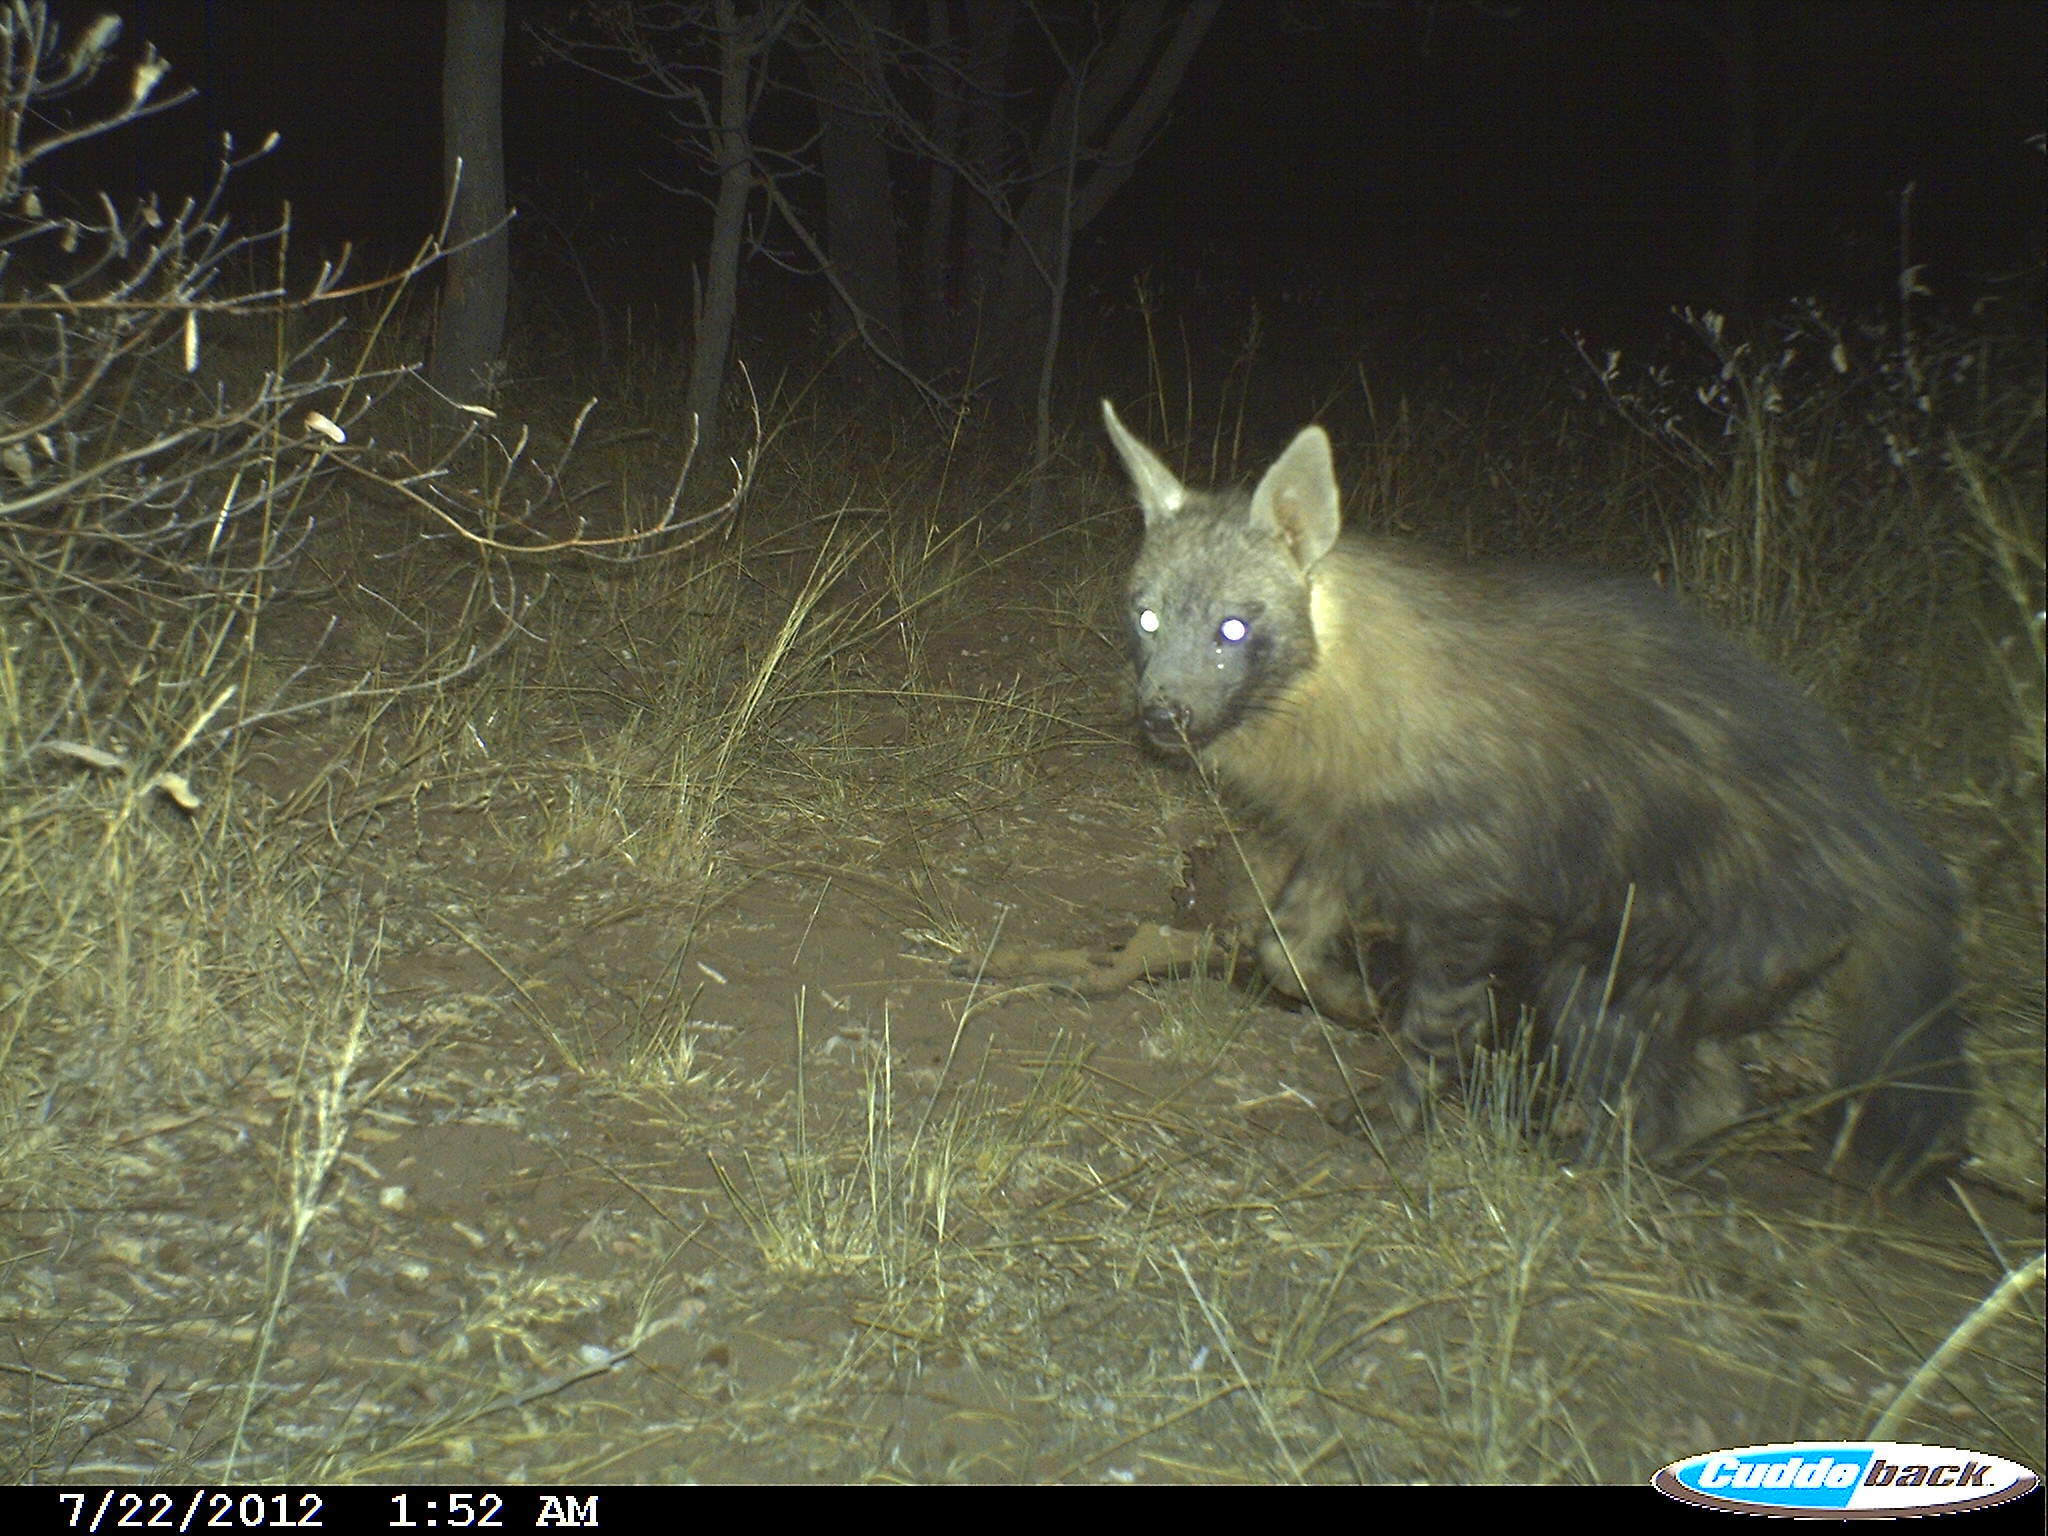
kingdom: Animalia
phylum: Chordata
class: Mammalia
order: Carnivora
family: Hyaenidae
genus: Hyaena
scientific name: Hyaena brunnea
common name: Brown hyena
